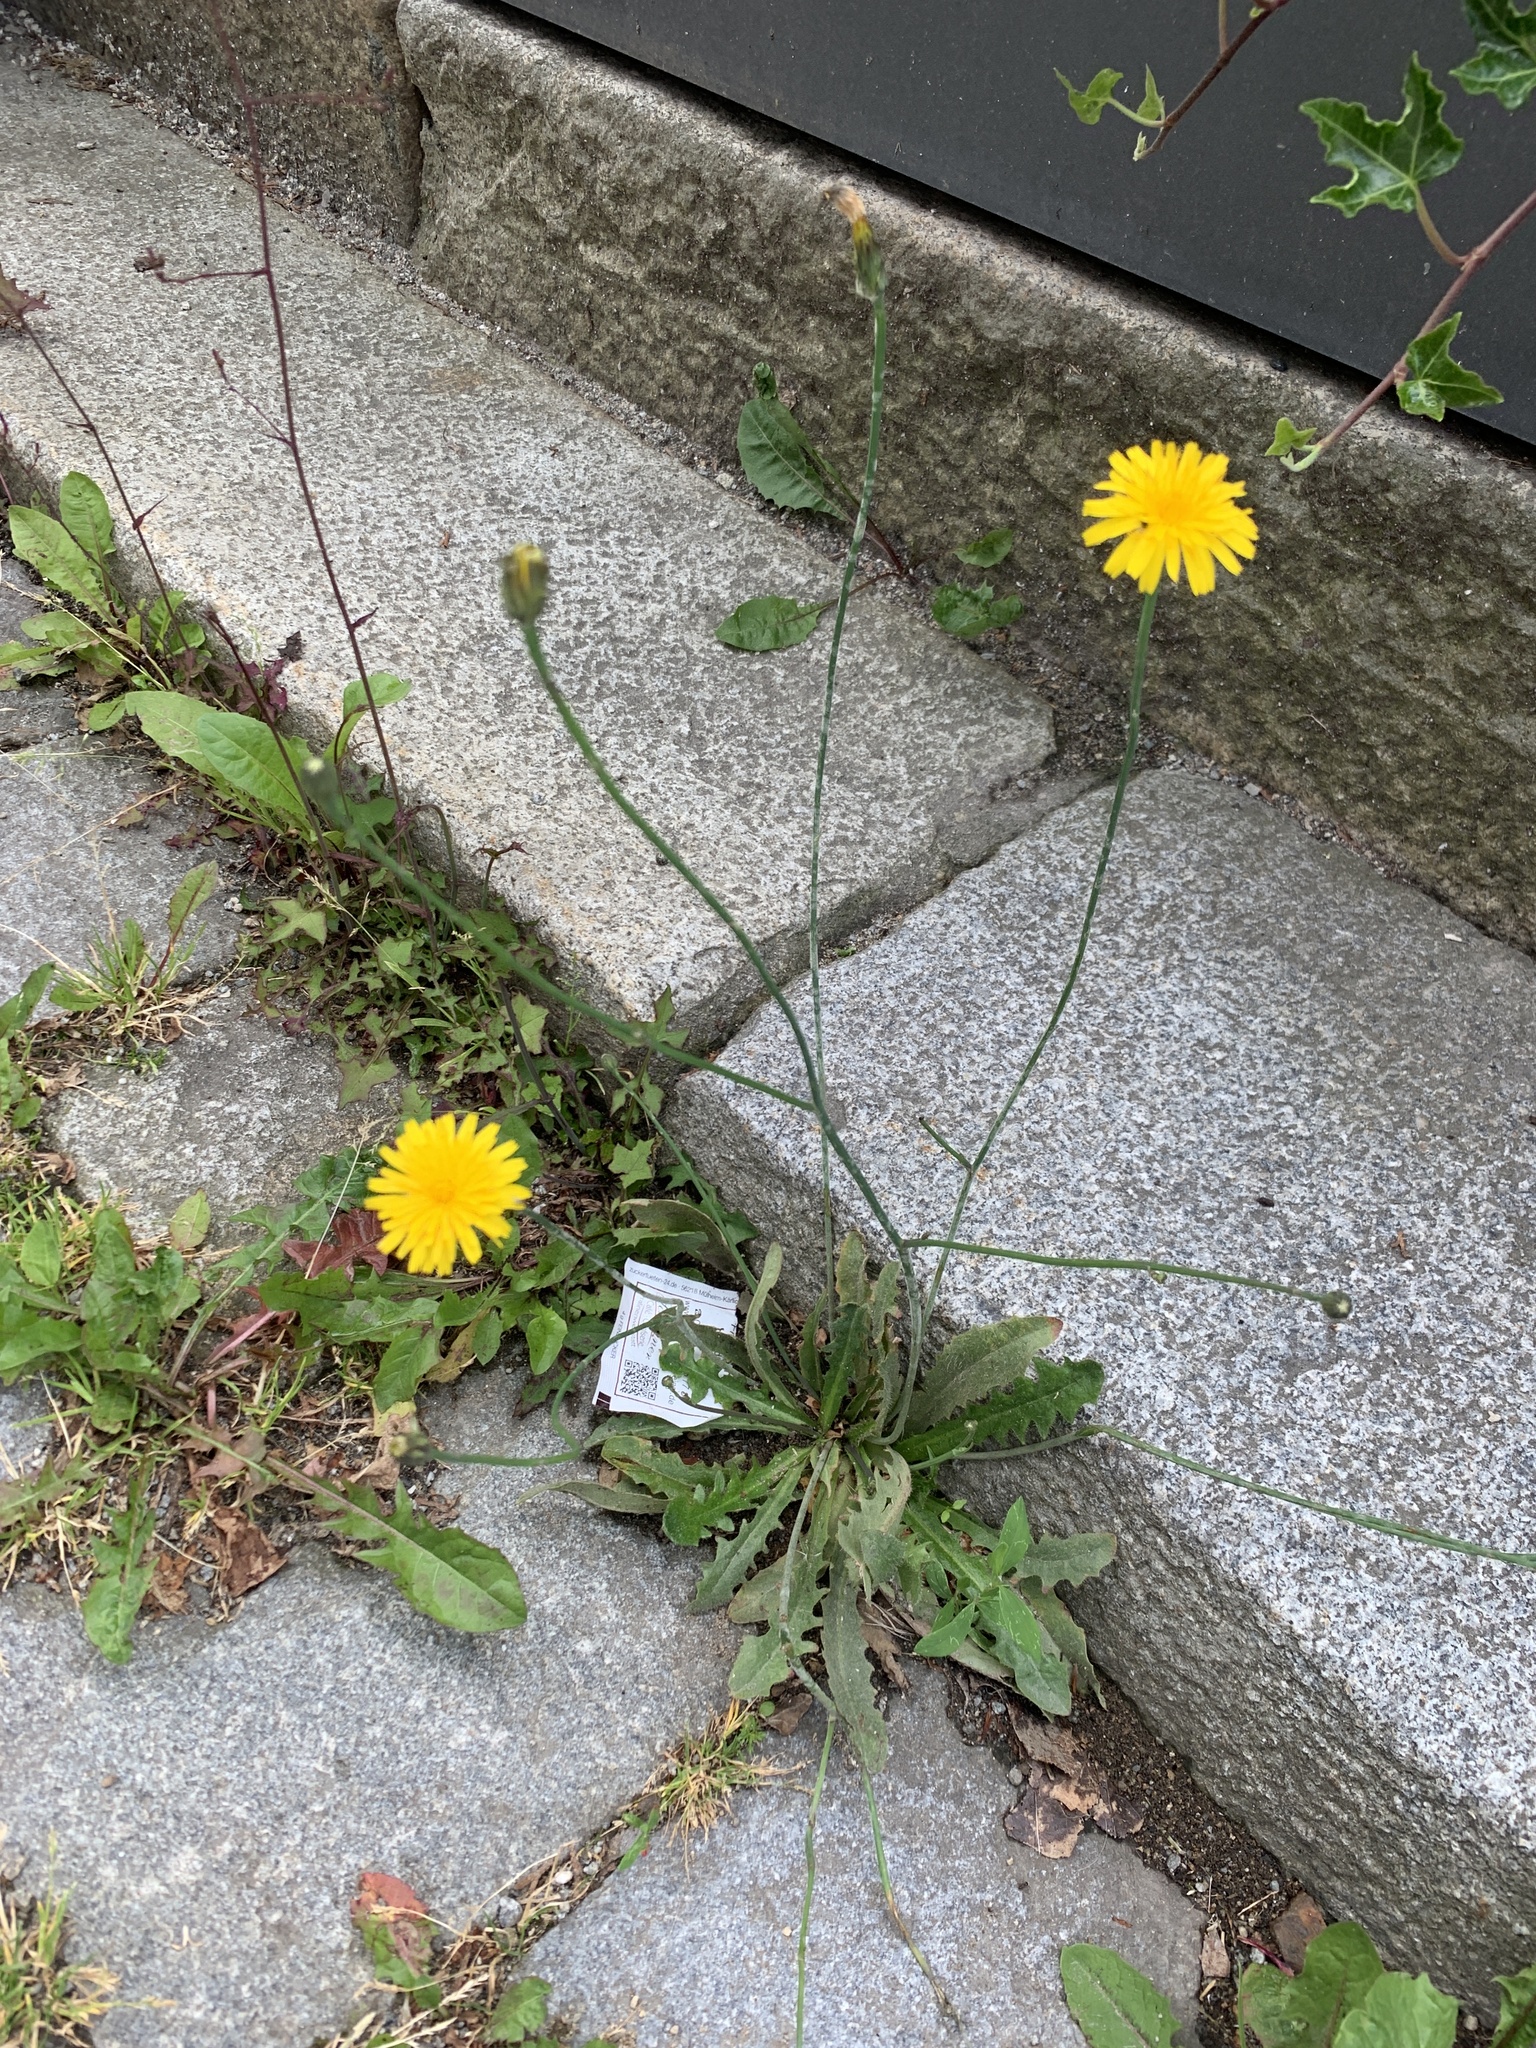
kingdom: Plantae
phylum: Tracheophyta
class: Magnoliopsida
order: Asterales
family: Asteraceae
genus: Hypochaeris
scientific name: Hypochaeris radicata
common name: Flatweed
